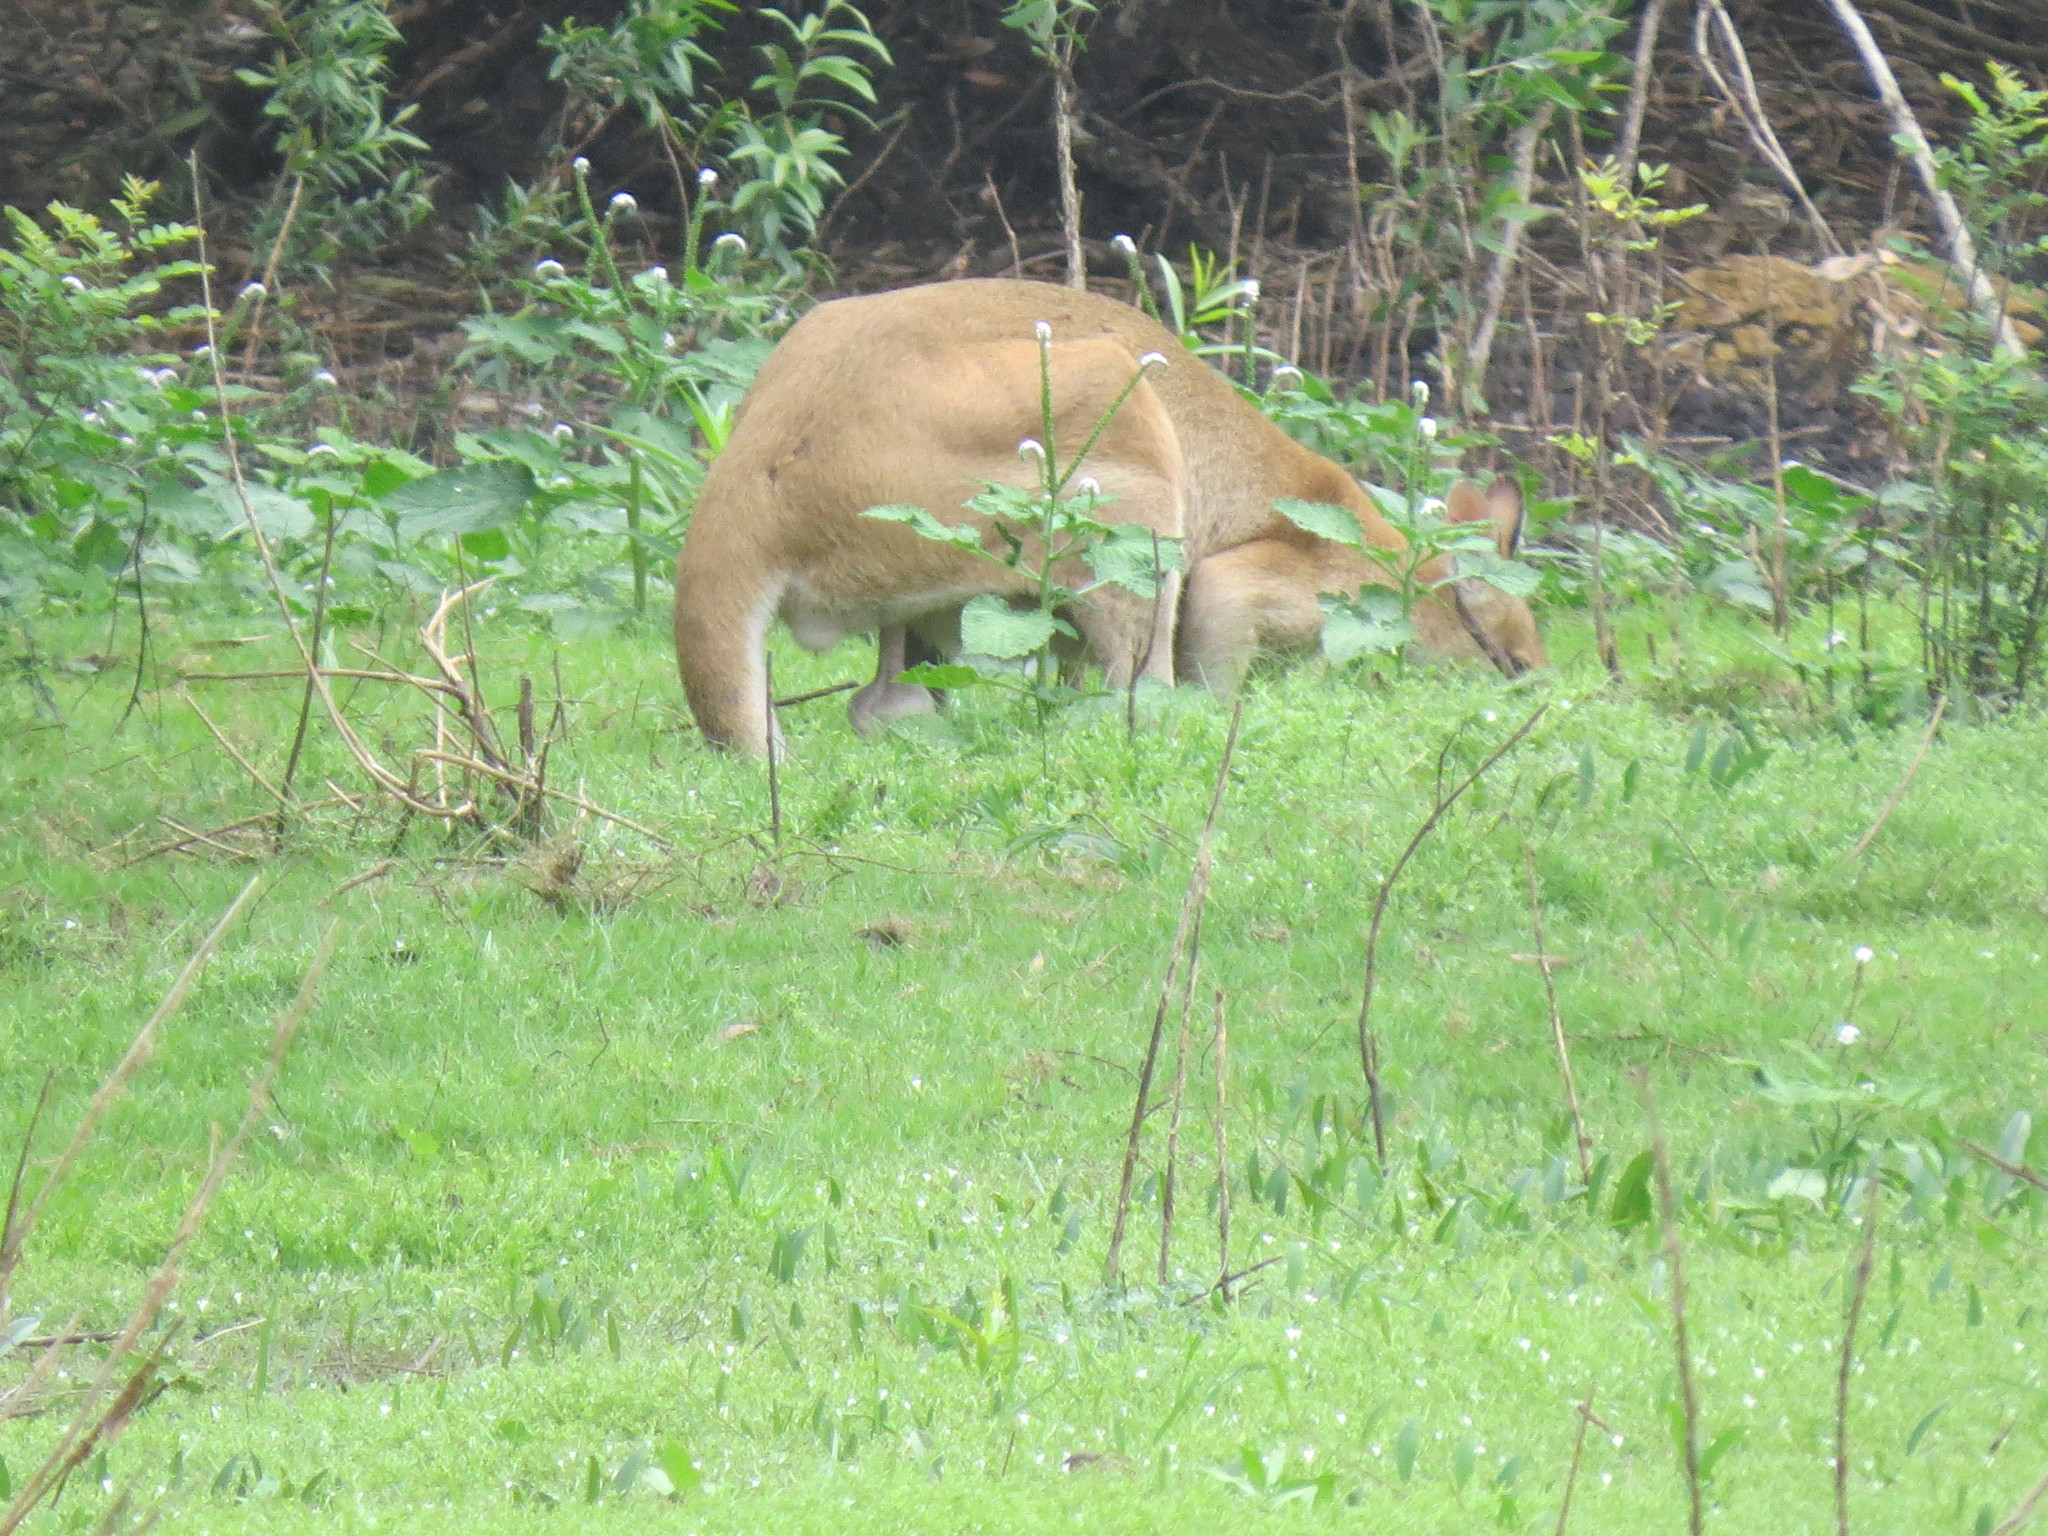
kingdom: Animalia
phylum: Chordata
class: Mammalia
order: Diprotodontia
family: Macropodidae
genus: Macropus
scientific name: Macropus agilis
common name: Agile wallaby
